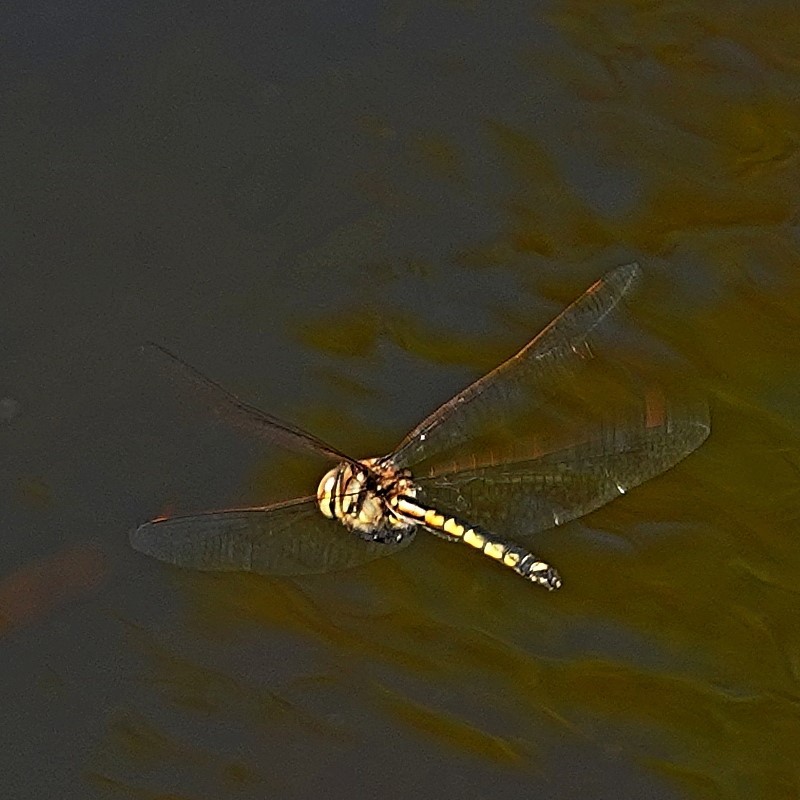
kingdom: Animalia
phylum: Arthropoda
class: Insecta
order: Odonata
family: Corduliidae
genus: Hemicordulia
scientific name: Hemicordulia tau
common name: Tau emerald
